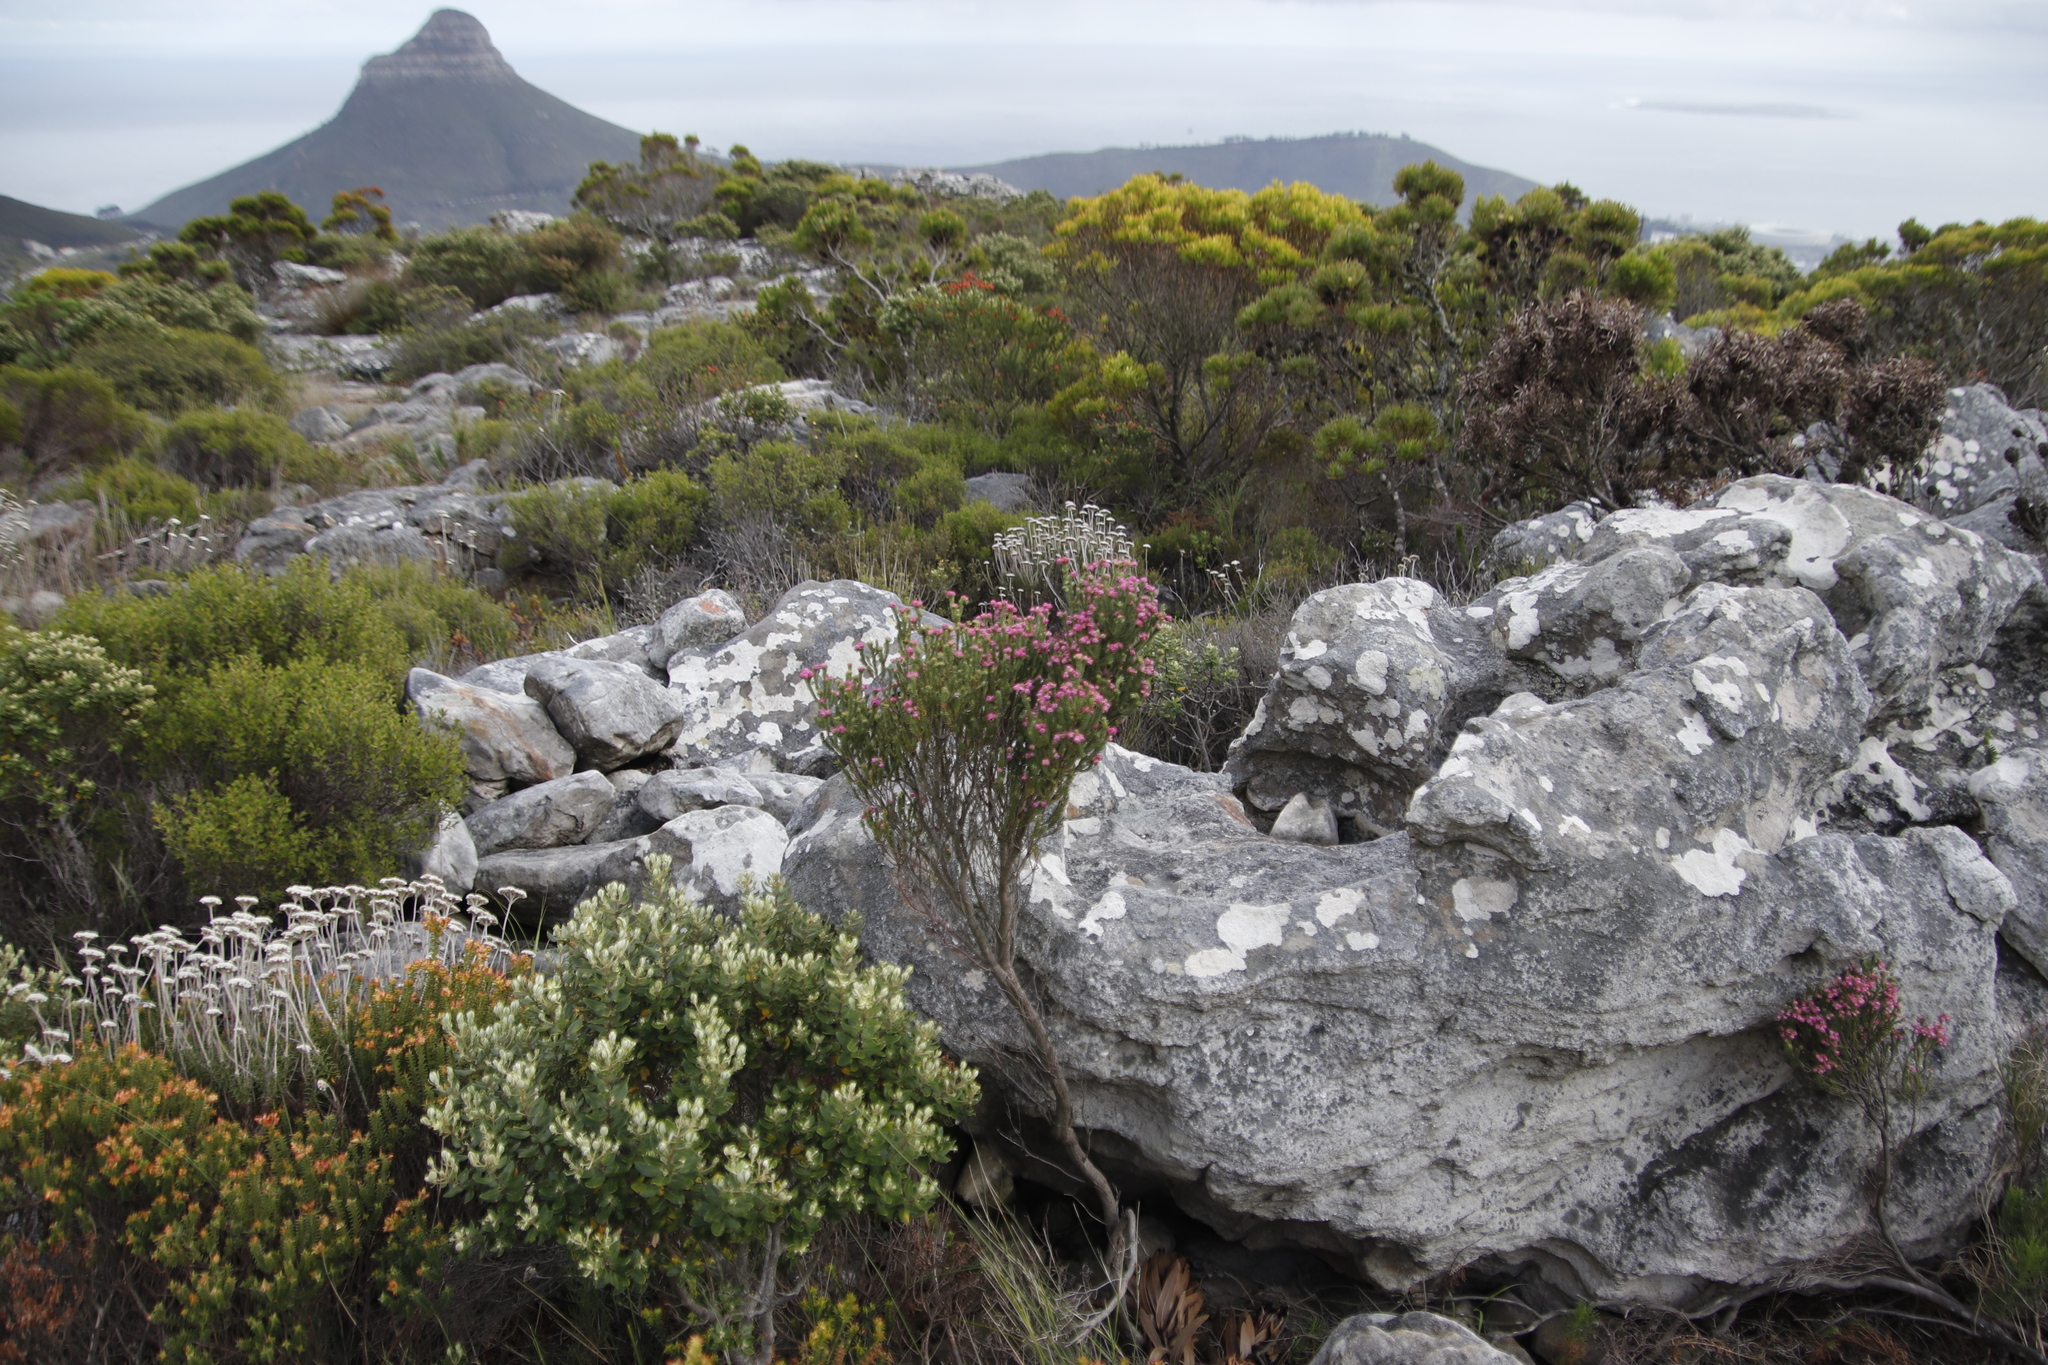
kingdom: Plantae
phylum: Tracheophyta
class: Magnoliopsida
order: Ericales
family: Ericaceae
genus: Erica
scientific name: Erica baccans
